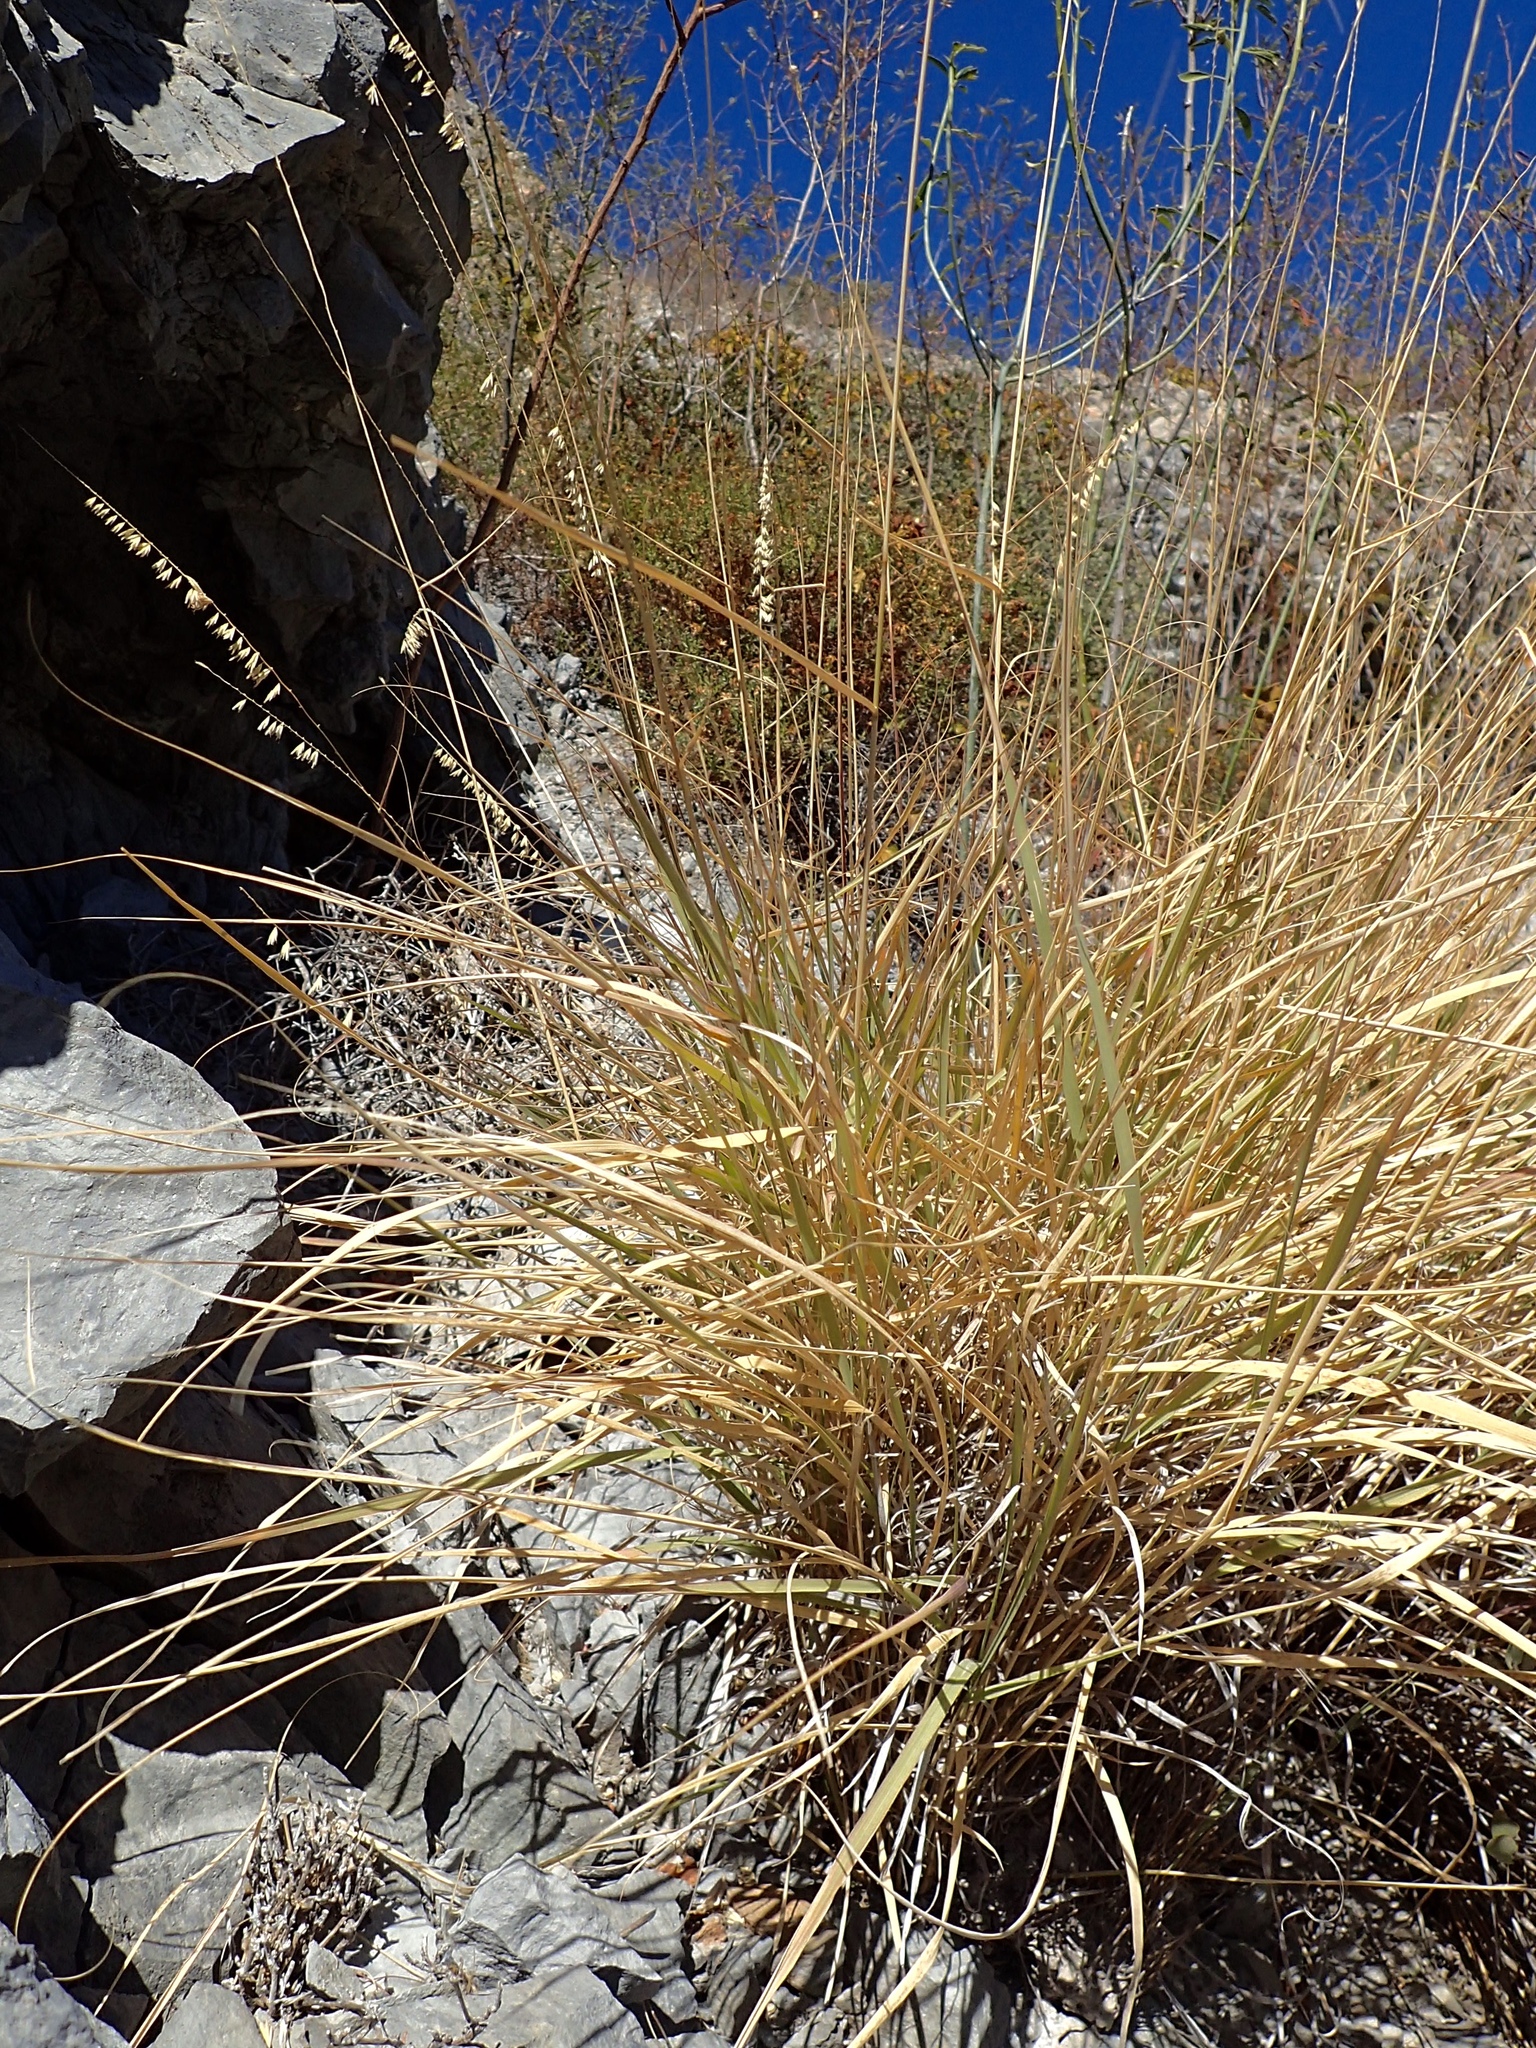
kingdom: Plantae
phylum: Tracheophyta
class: Liliopsida
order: Poales
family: Poaceae
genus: Bouteloua
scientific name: Bouteloua reflexa
